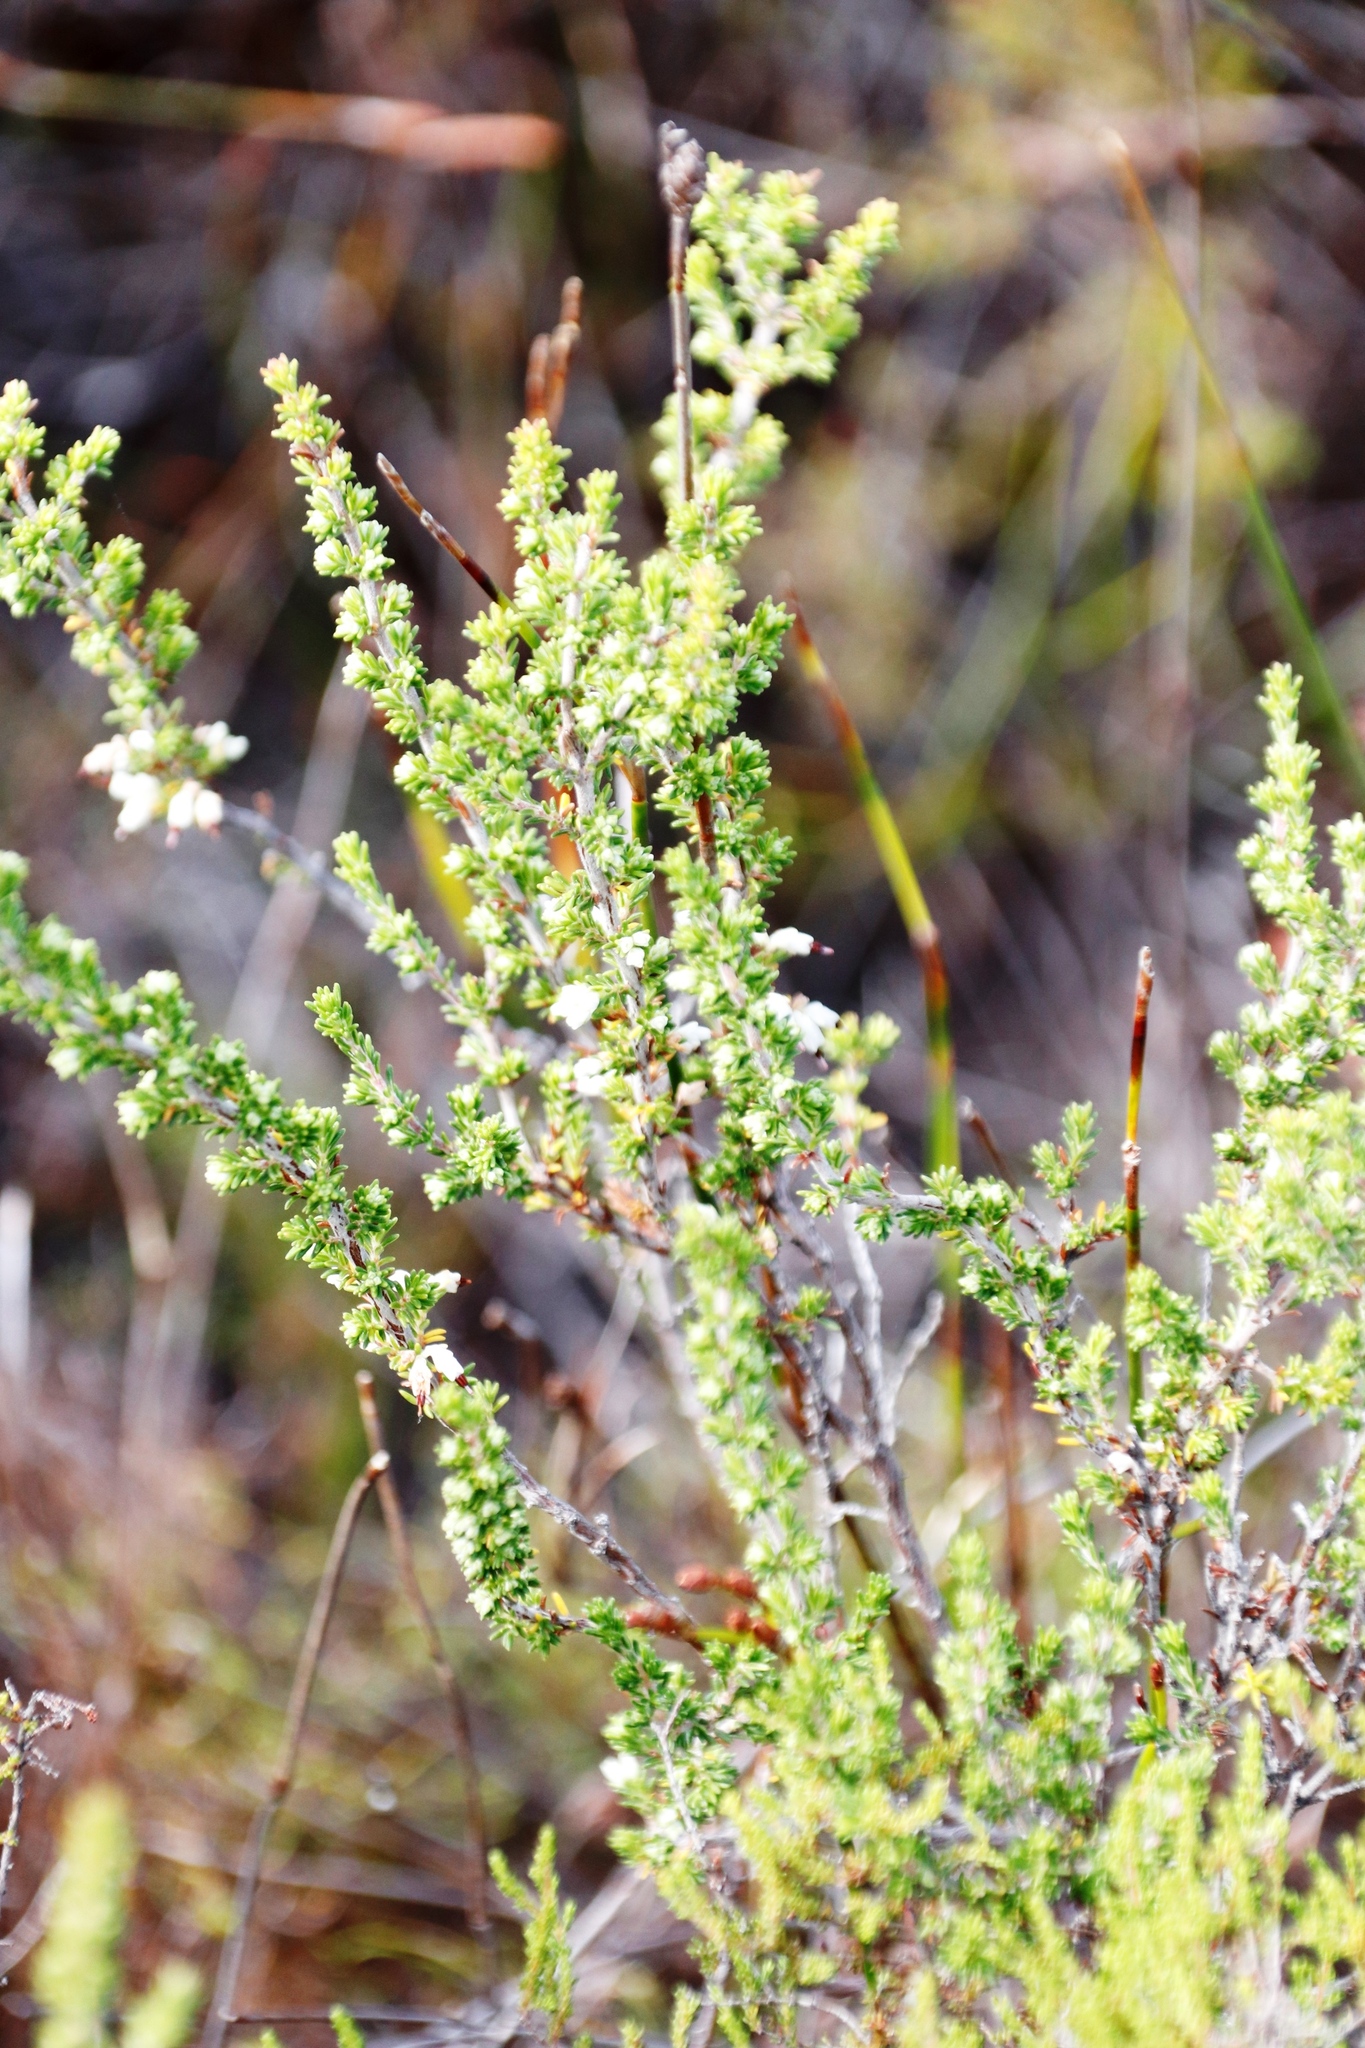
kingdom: Plantae
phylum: Tracheophyta
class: Magnoliopsida
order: Ericales
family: Ericaceae
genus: Erica
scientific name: Erica imbricata
